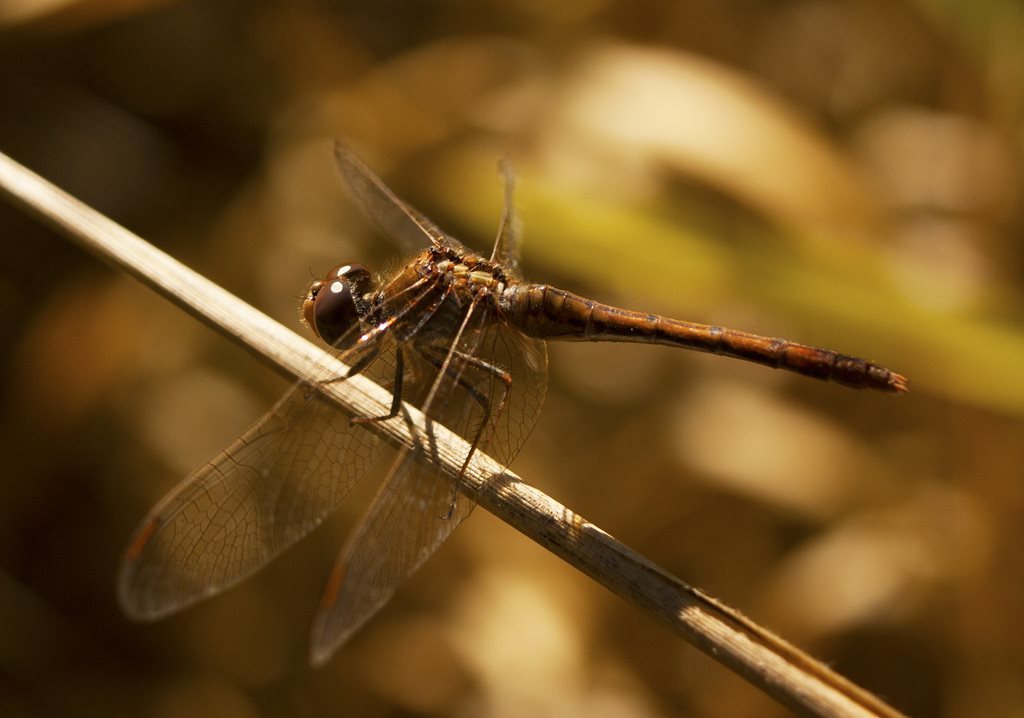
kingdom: Animalia
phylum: Arthropoda
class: Insecta
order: Odonata
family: Libellulidae
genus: Diplacodes
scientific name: Diplacodes bipunctata
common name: Red percher dragonfly
